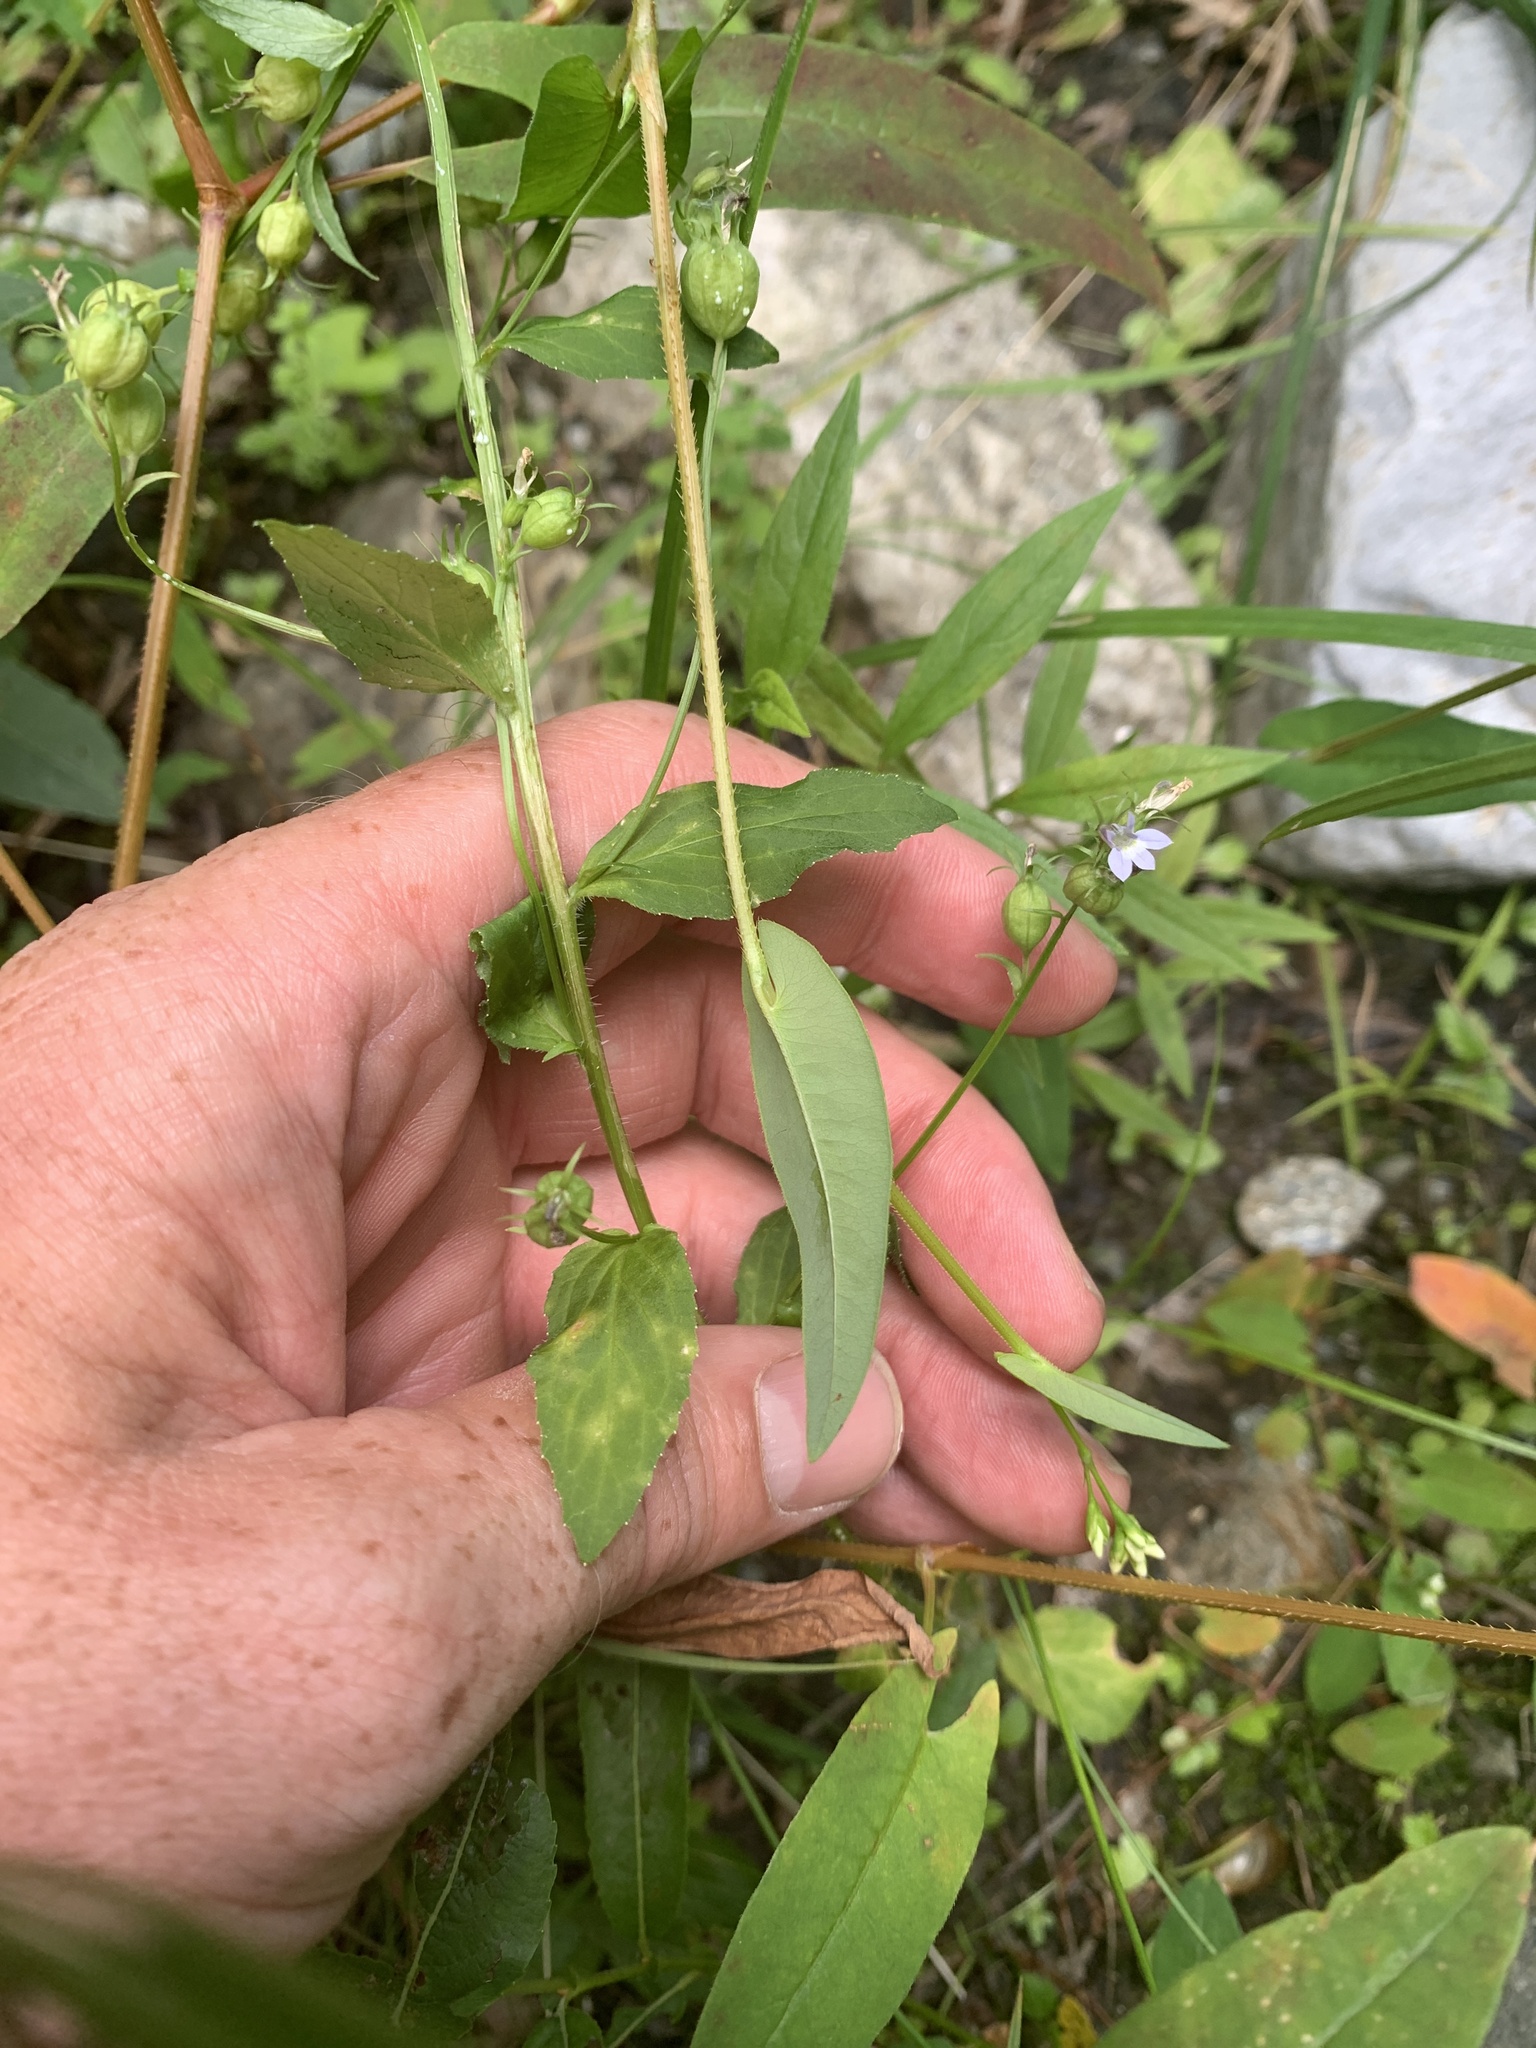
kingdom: Plantae
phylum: Tracheophyta
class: Magnoliopsida
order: Asterales
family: Campanulaceae
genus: Lobelia
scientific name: Lobelia inflata
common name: Indian tobacco
